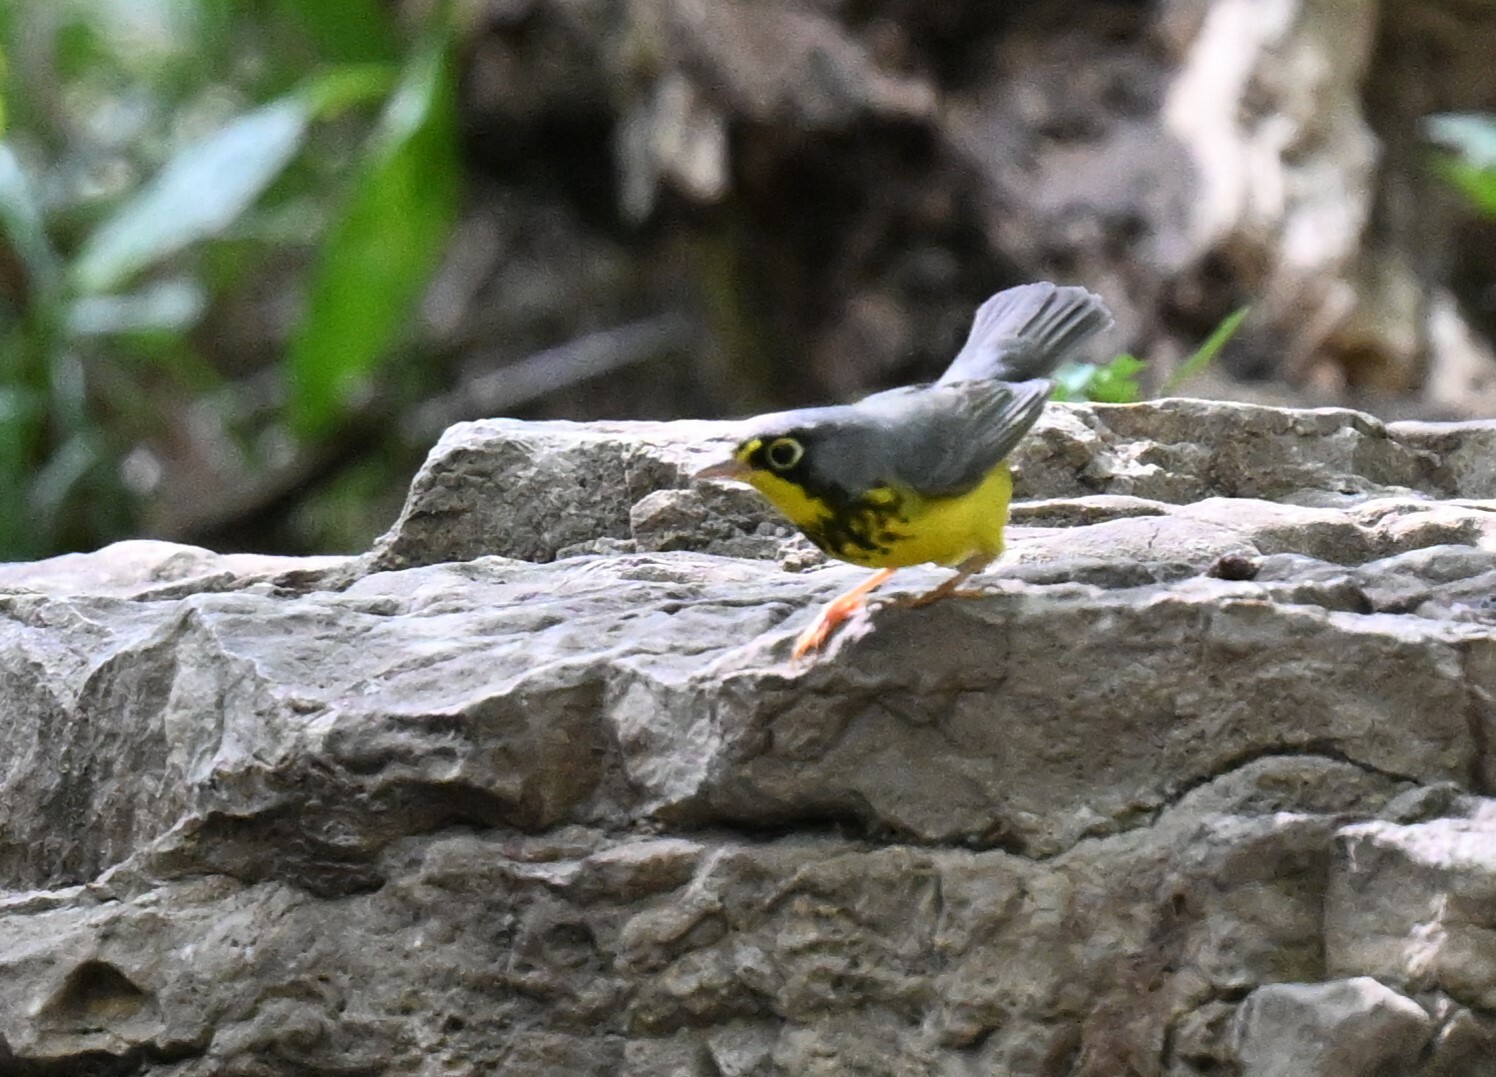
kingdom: Animalia
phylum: Chordata
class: Aves
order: Passeriformes
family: Parulidae
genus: Cardellina
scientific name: Cardellina canadensis
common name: Canada warbler
